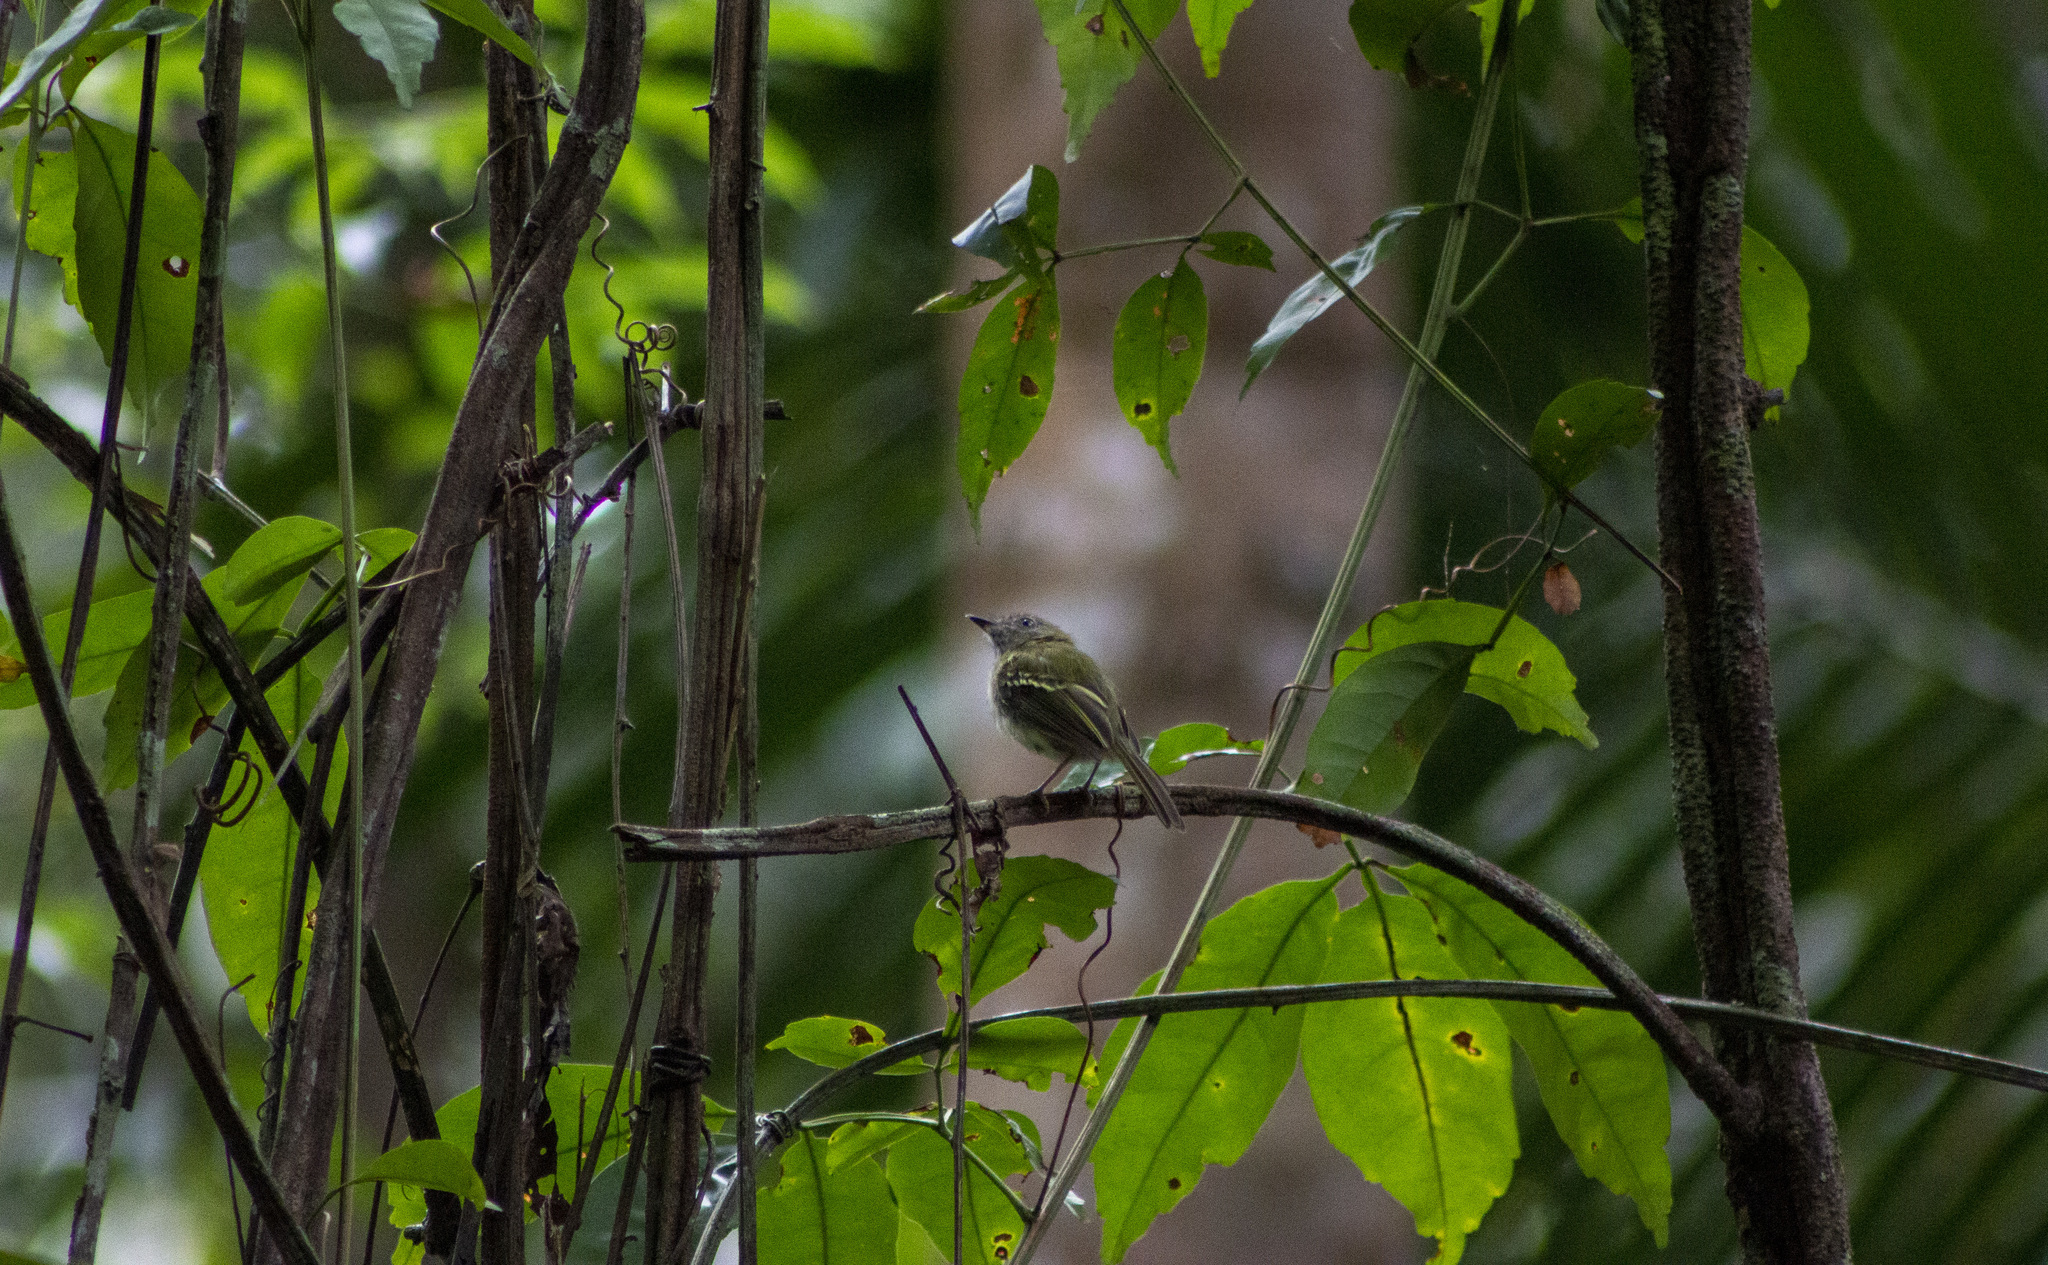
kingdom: Animalia
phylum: Chordata
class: Aves
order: Passeriformes
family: Tyrannidae
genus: Hemitriccus
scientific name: Hemitriccus griseipectus
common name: White-bellied tody-tyrant
